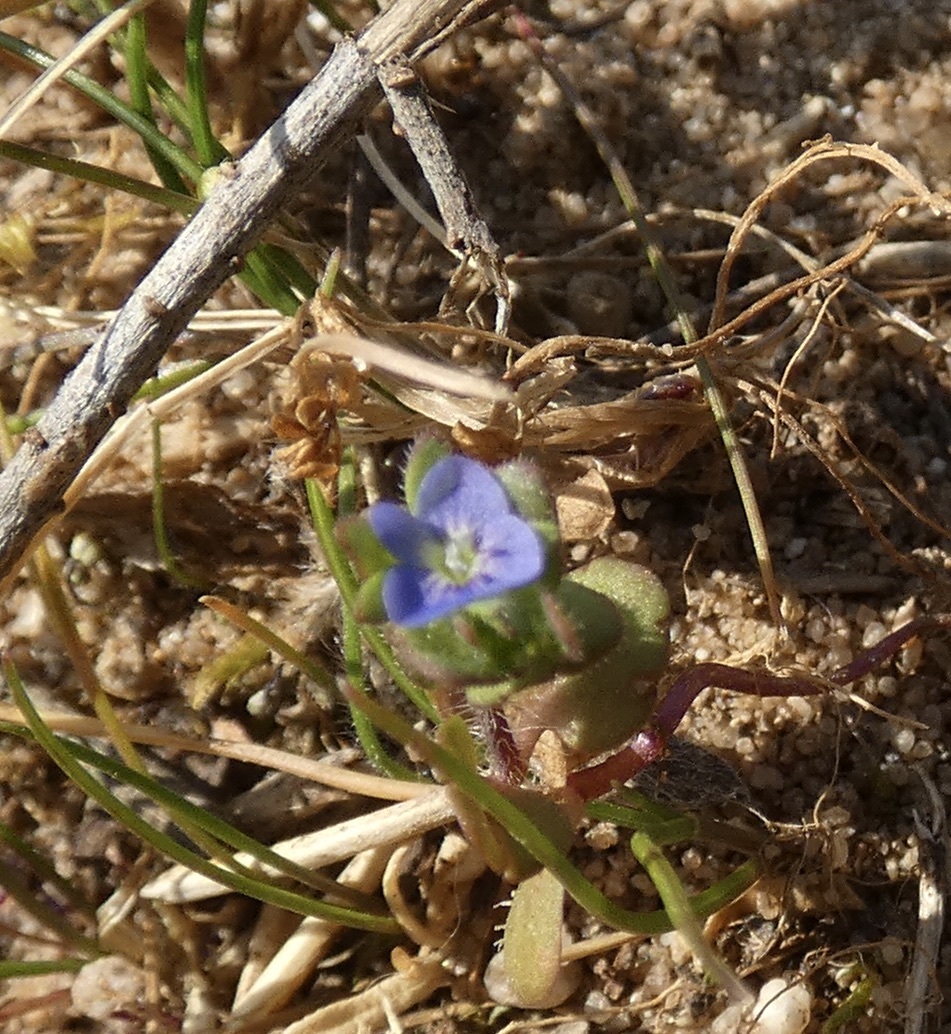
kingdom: Plantae
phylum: Tracheophyta
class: Magnoliopsida
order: Lamiales
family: Plantaginaceae
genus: Veronica
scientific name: Veronica arvensis
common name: Corn speedwell
